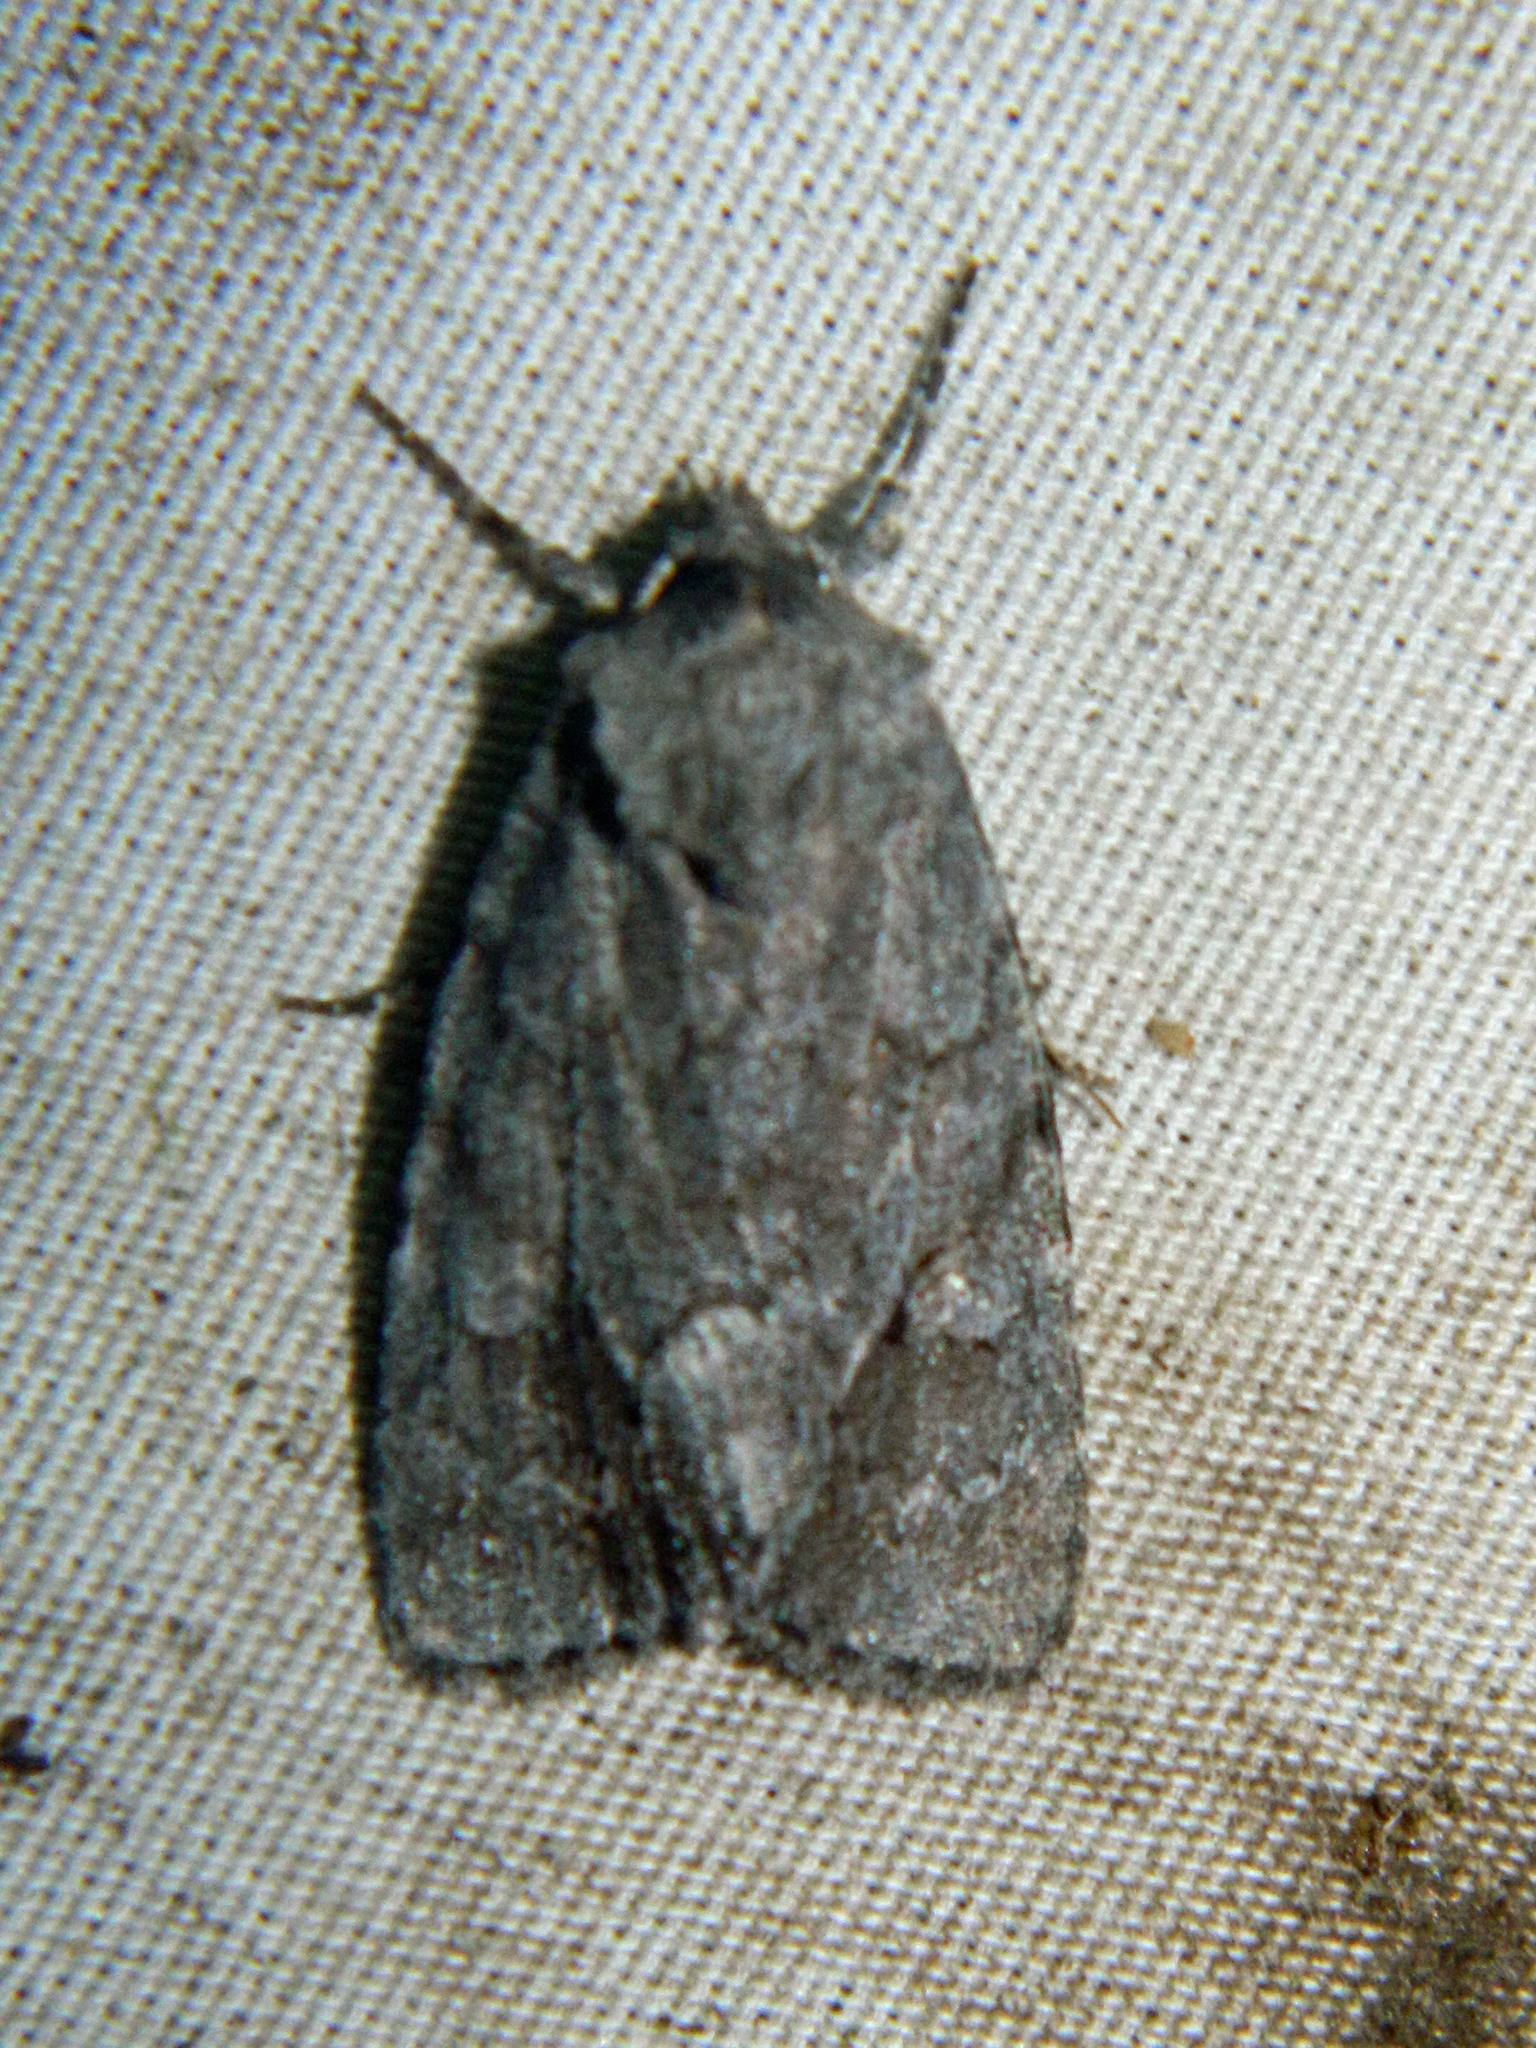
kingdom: Animalia
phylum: Arthropoda
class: Insecta
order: Lepidoptera
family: Noctuidae
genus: Sympistis
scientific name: Sympistis dentata
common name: Blueberry sallow
